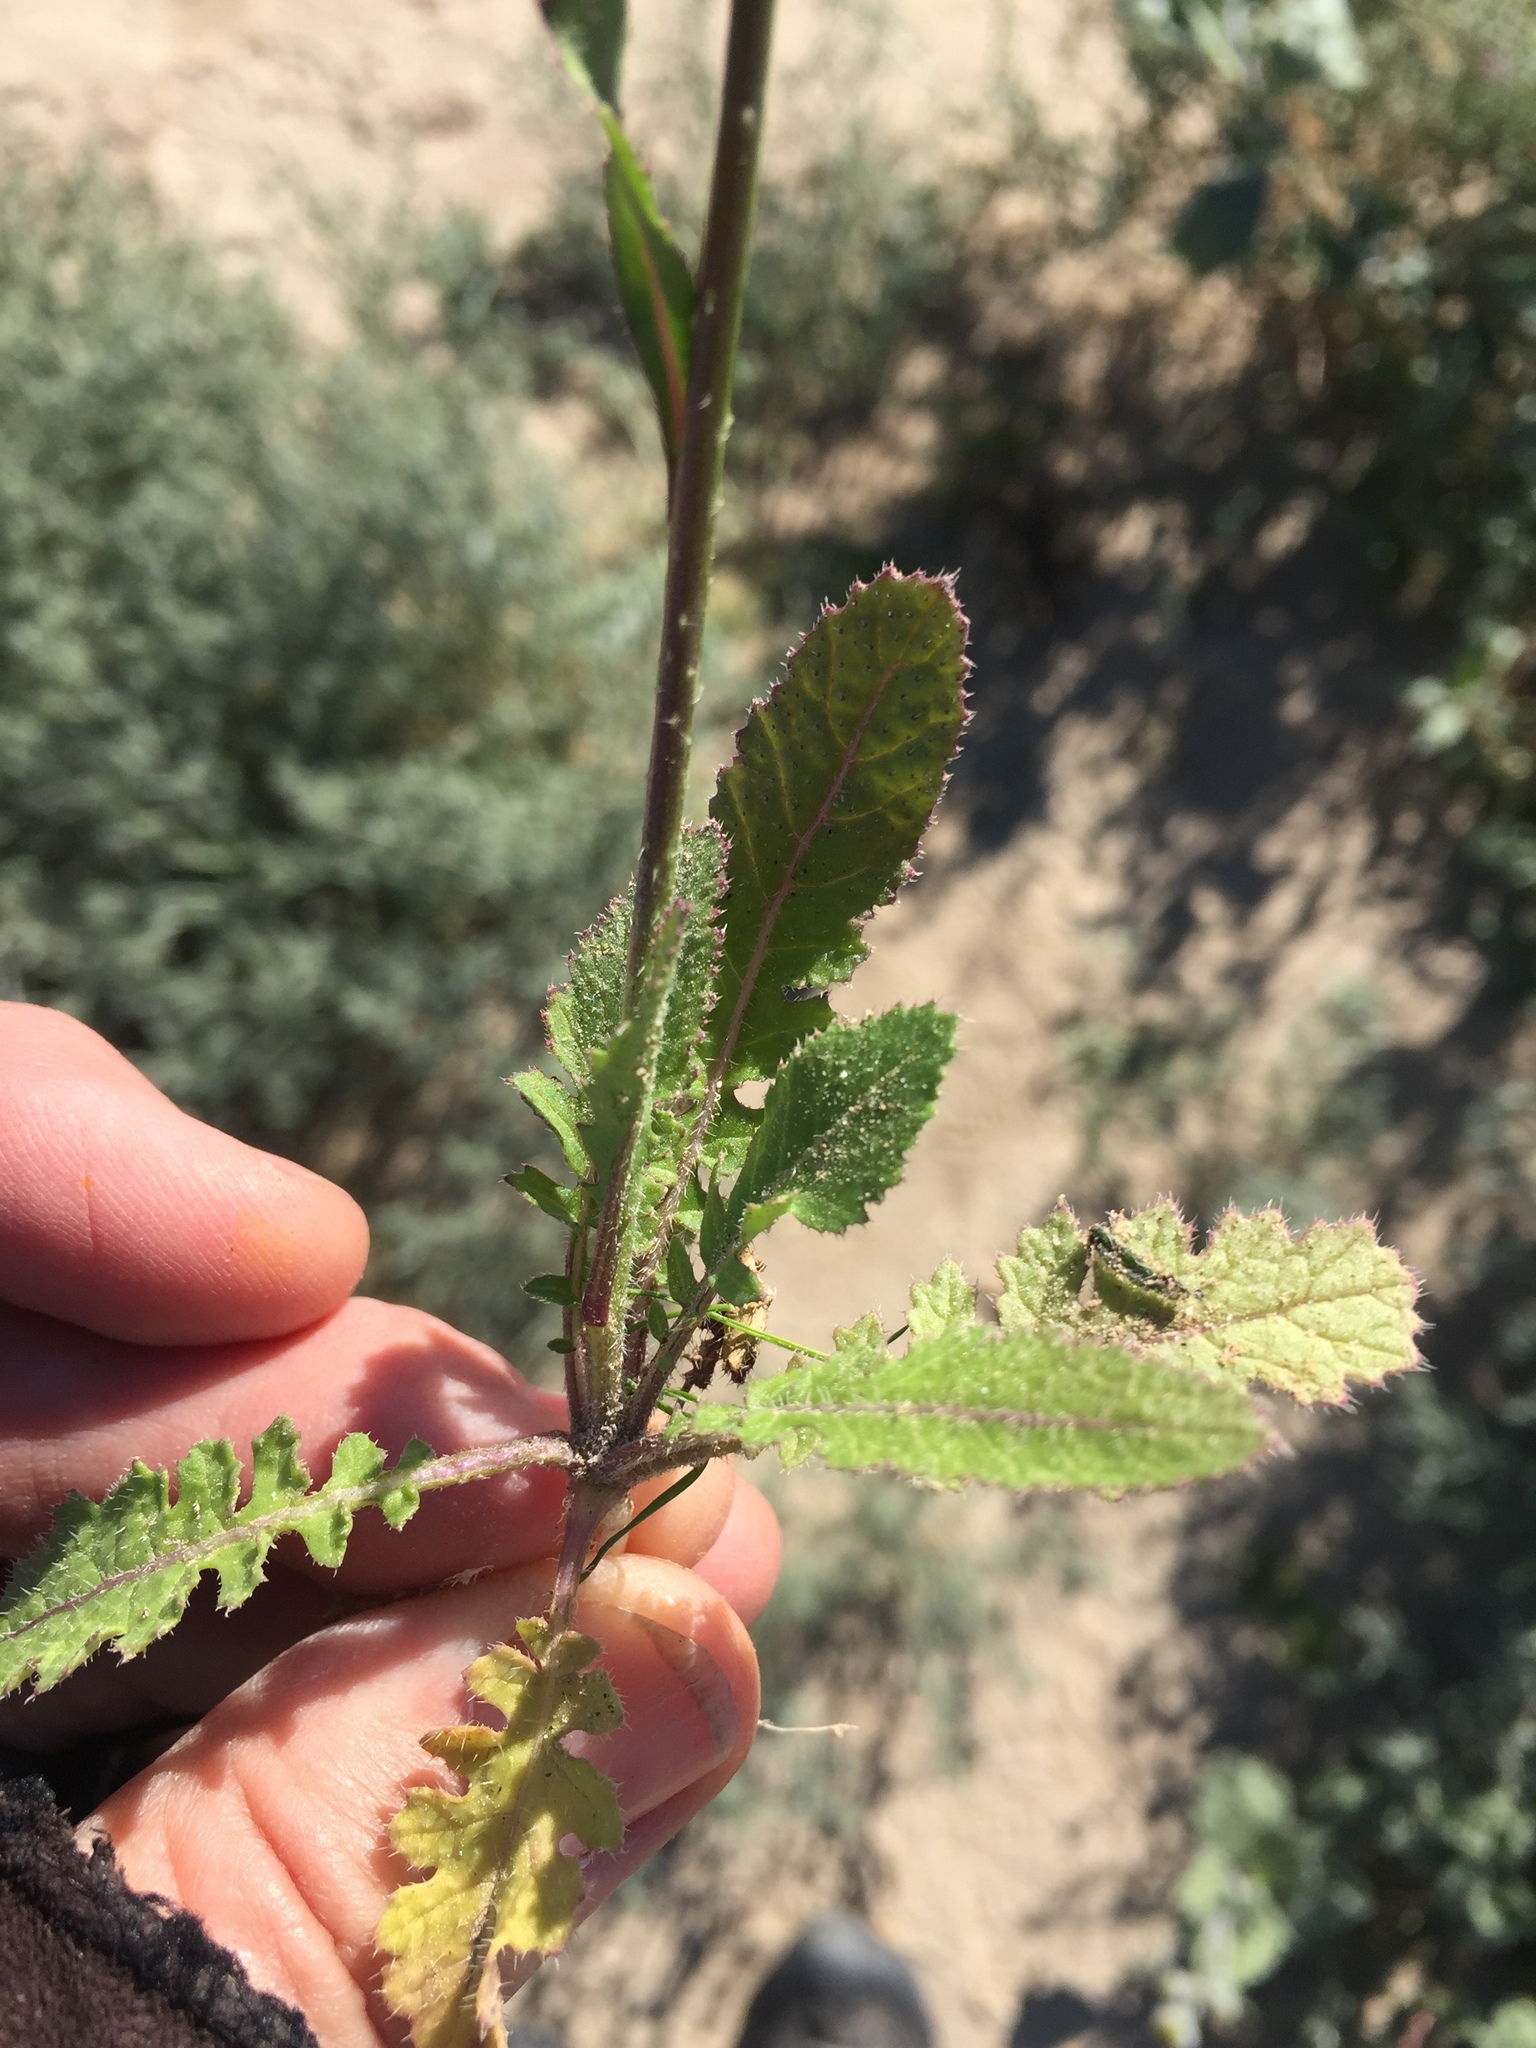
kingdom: Plantae
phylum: Tracheophyta
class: Magnoliopsida
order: Brassicales
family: Brassicaceae
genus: Brassica
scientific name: Brassica tournefortii
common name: Pale cabbage
